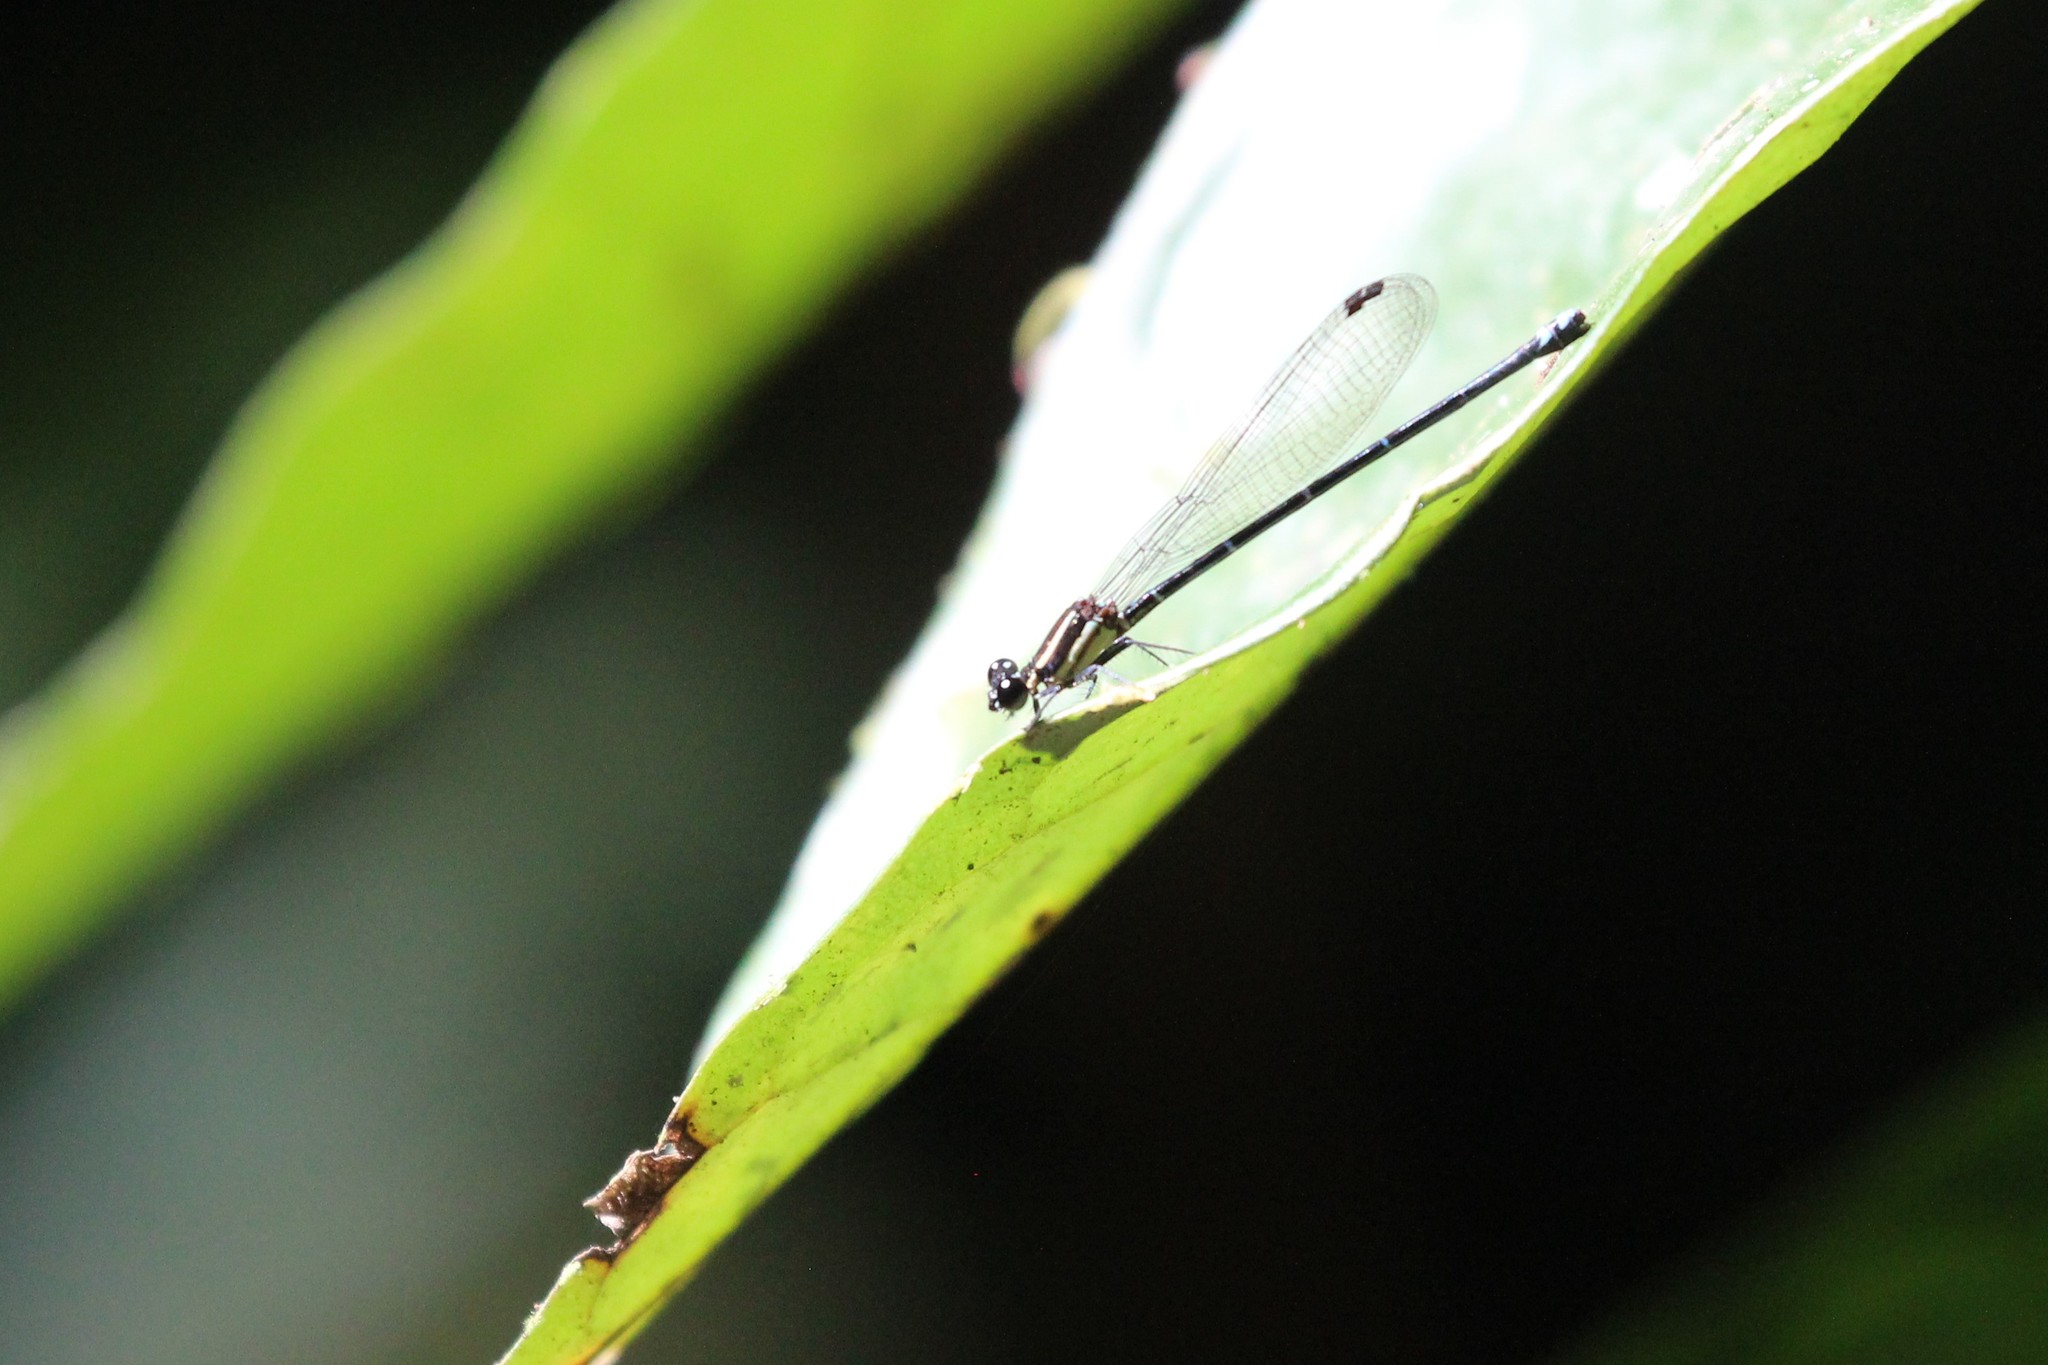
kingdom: Animalia
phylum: Arthropoda
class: Insecta
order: Odonata
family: Coenagrionidae
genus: Argia
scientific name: Argia adamsi
